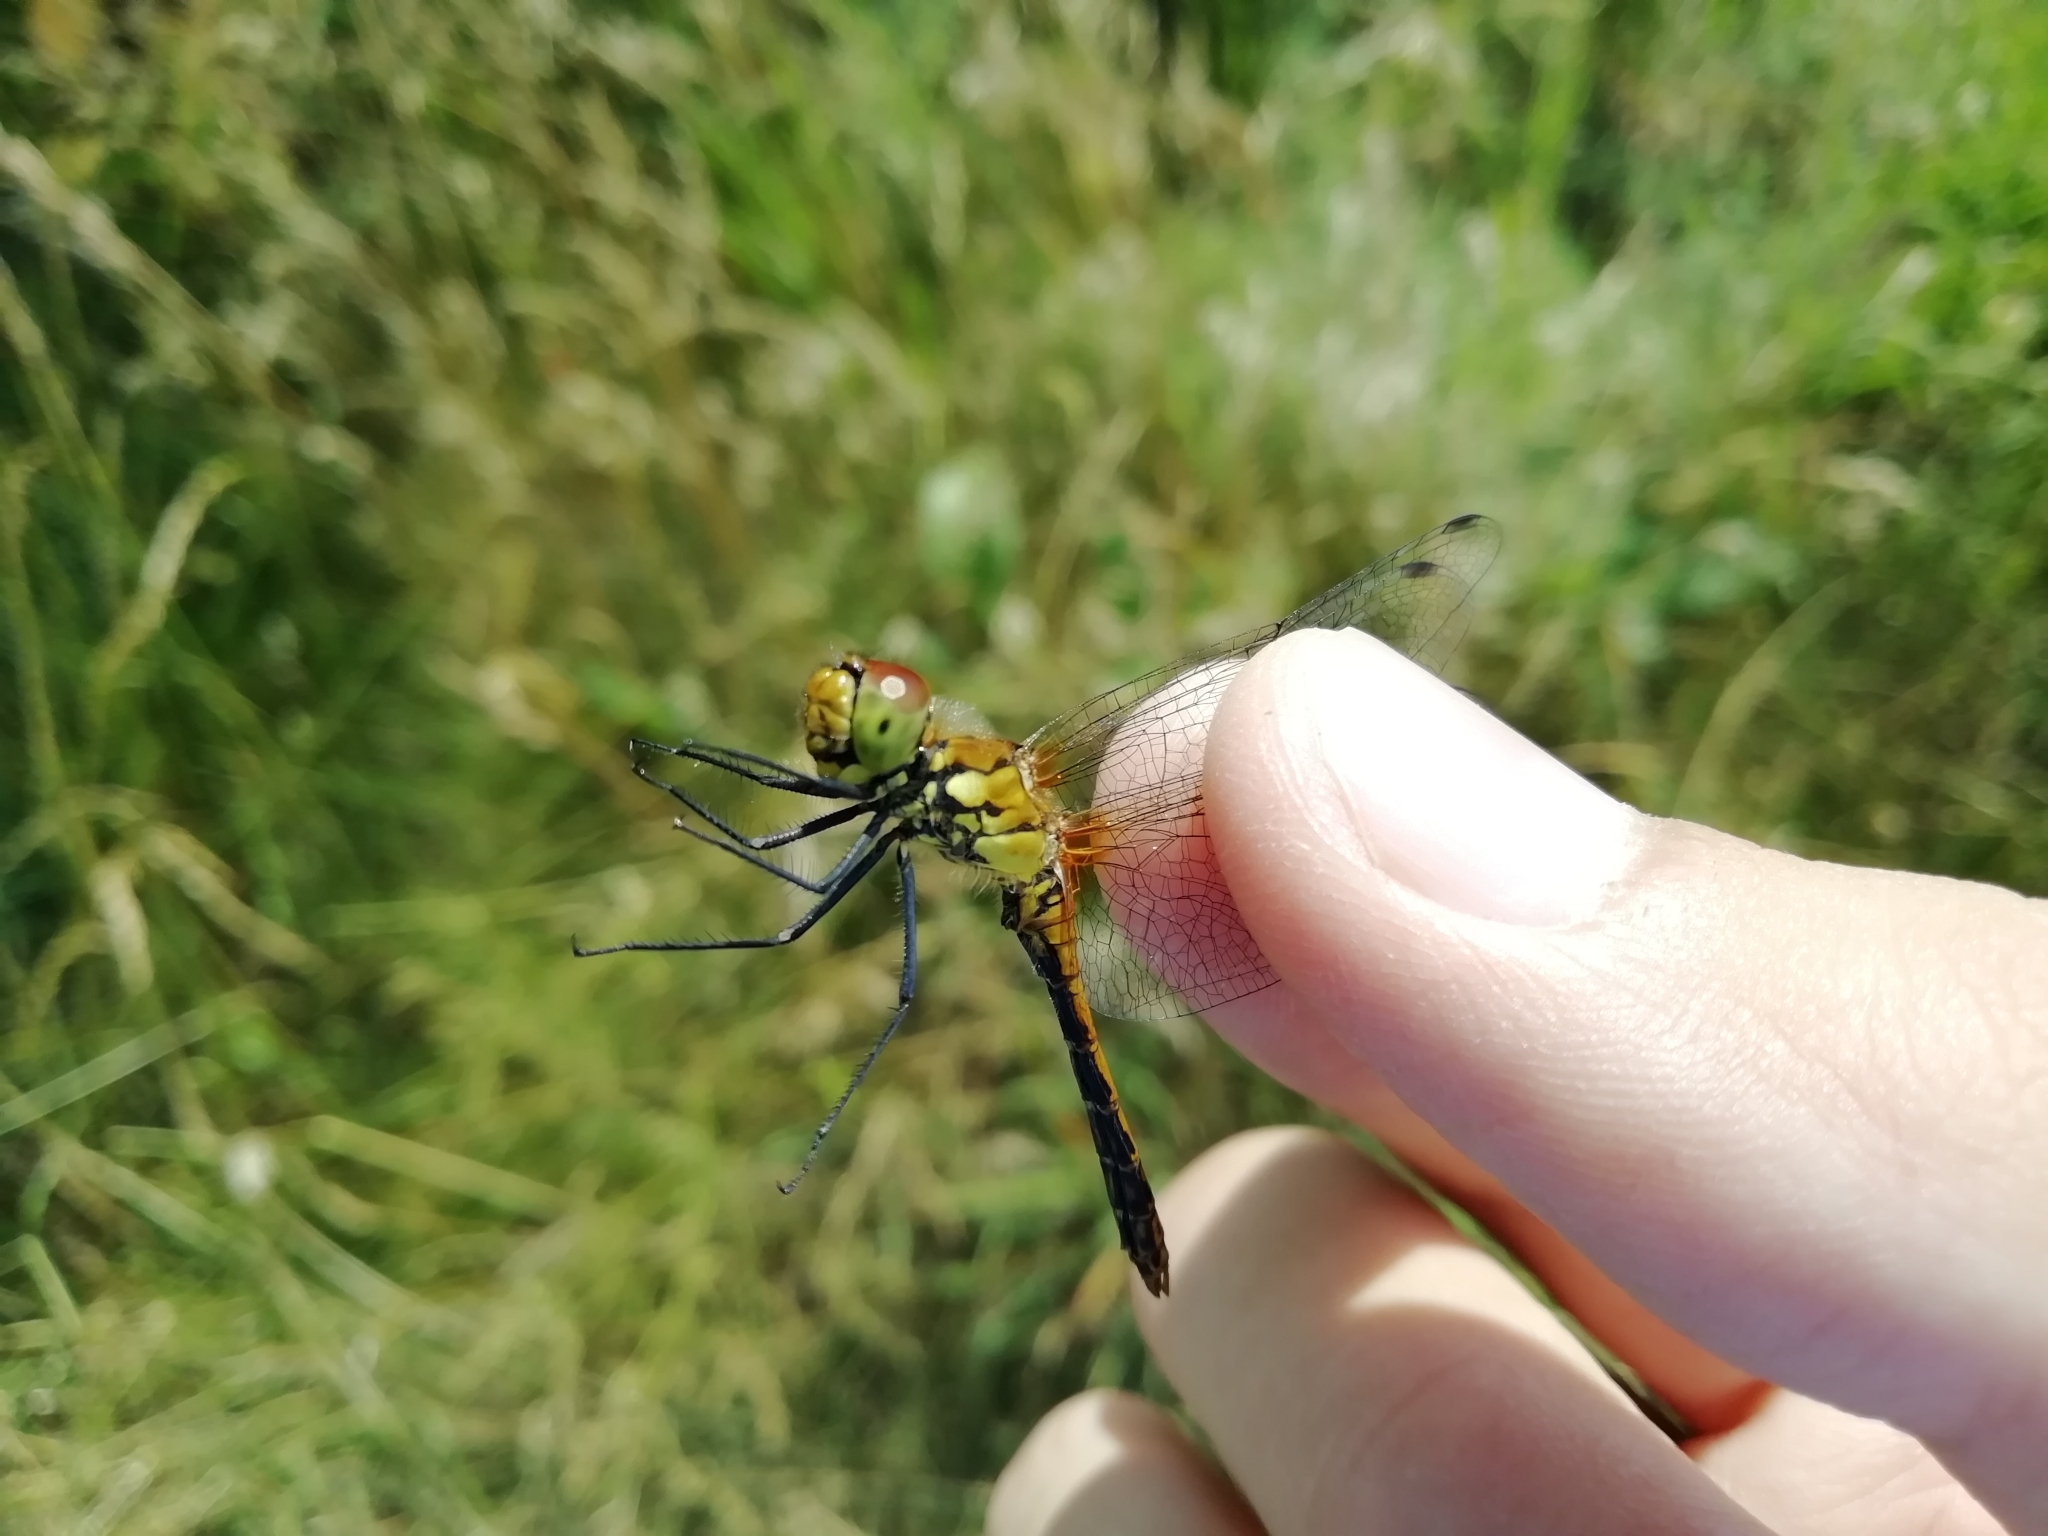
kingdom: Animalia
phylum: Arthropoda
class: Insecta
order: Odonata
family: Libellulidae
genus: Sympetrum
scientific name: Sympetrum sanguineum
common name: Ruddy darter
